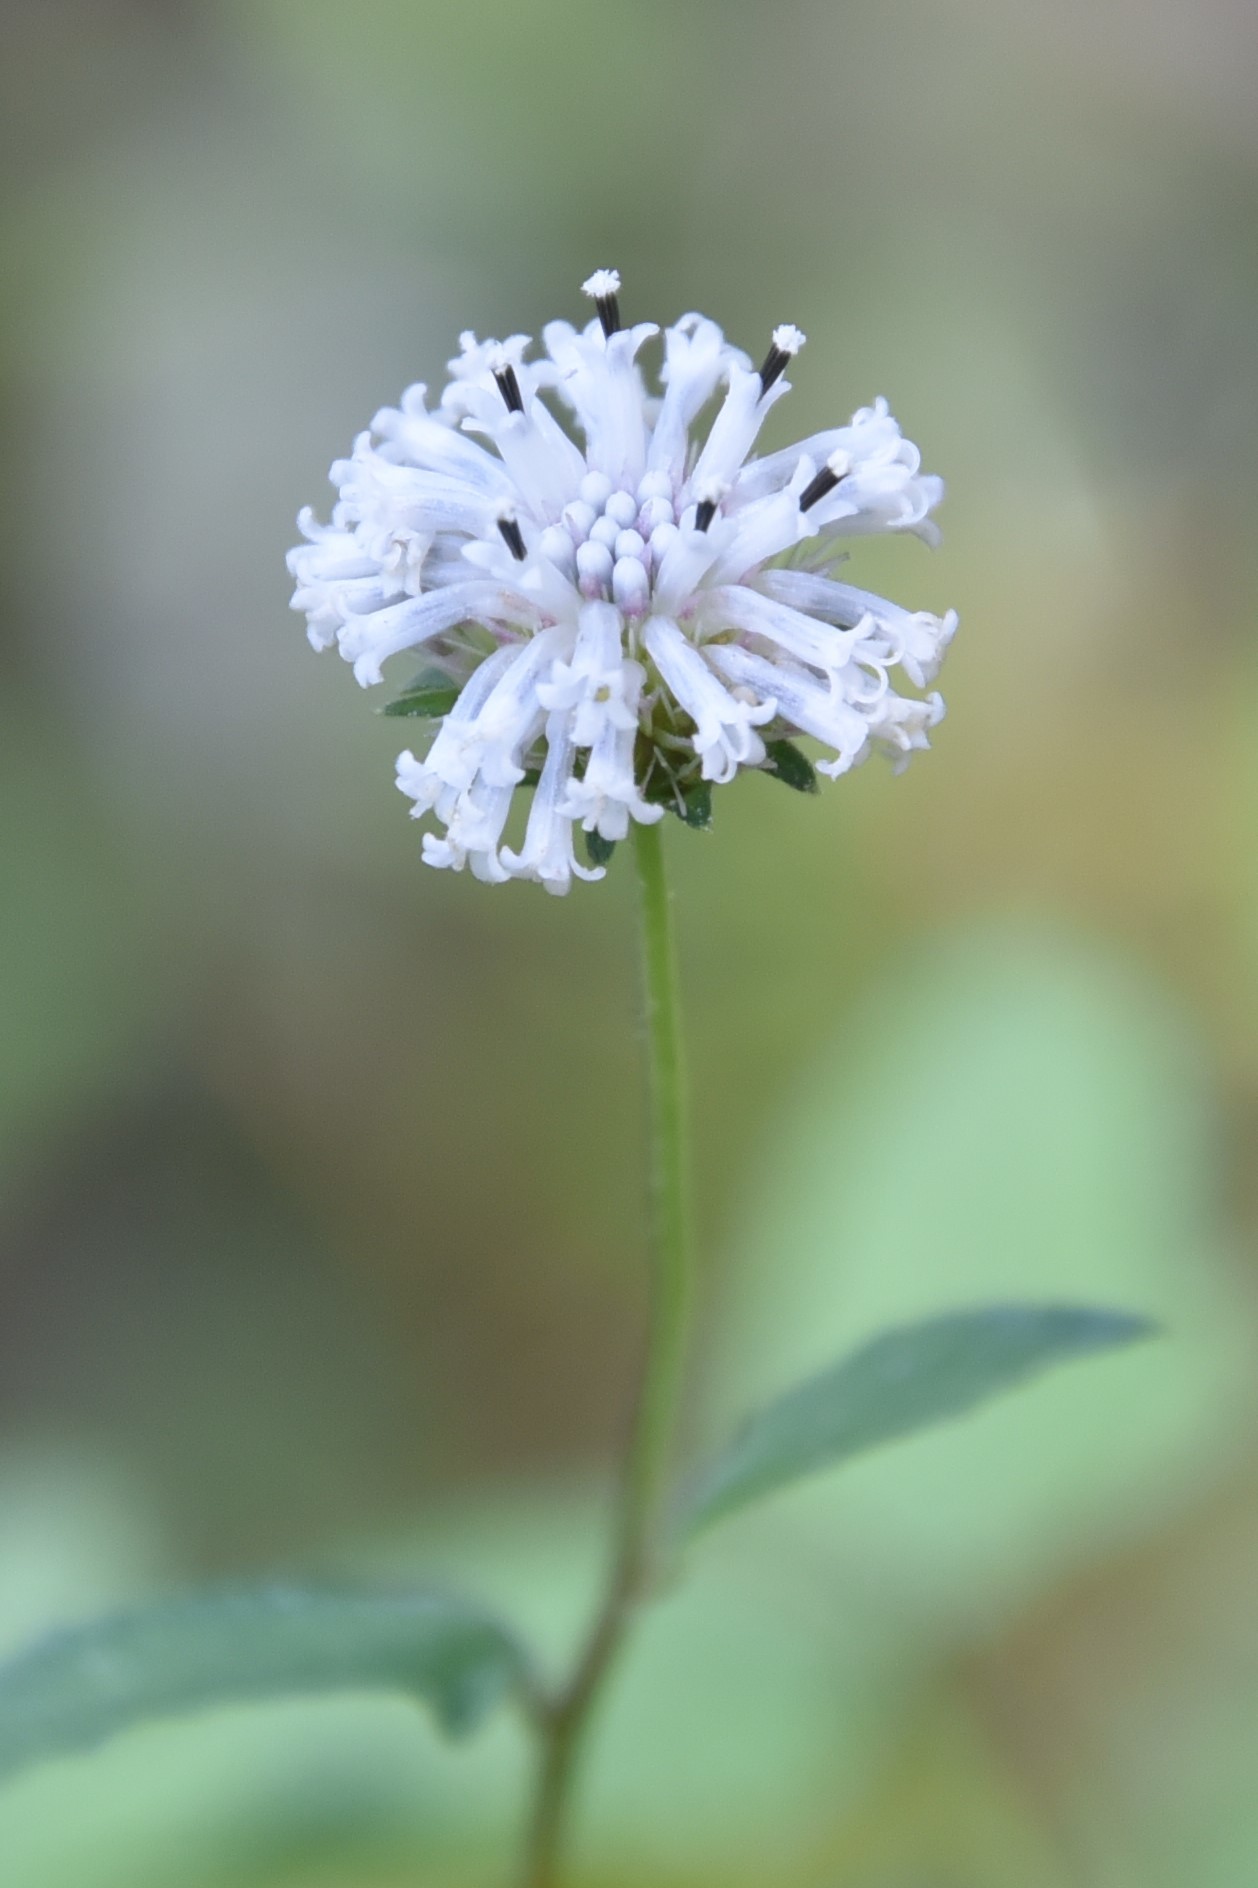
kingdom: Plantae
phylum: Tracheophyta
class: Magnoliopsida
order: Asterales
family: Asteraceae
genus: Melanthera
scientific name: Melanthera nivea
